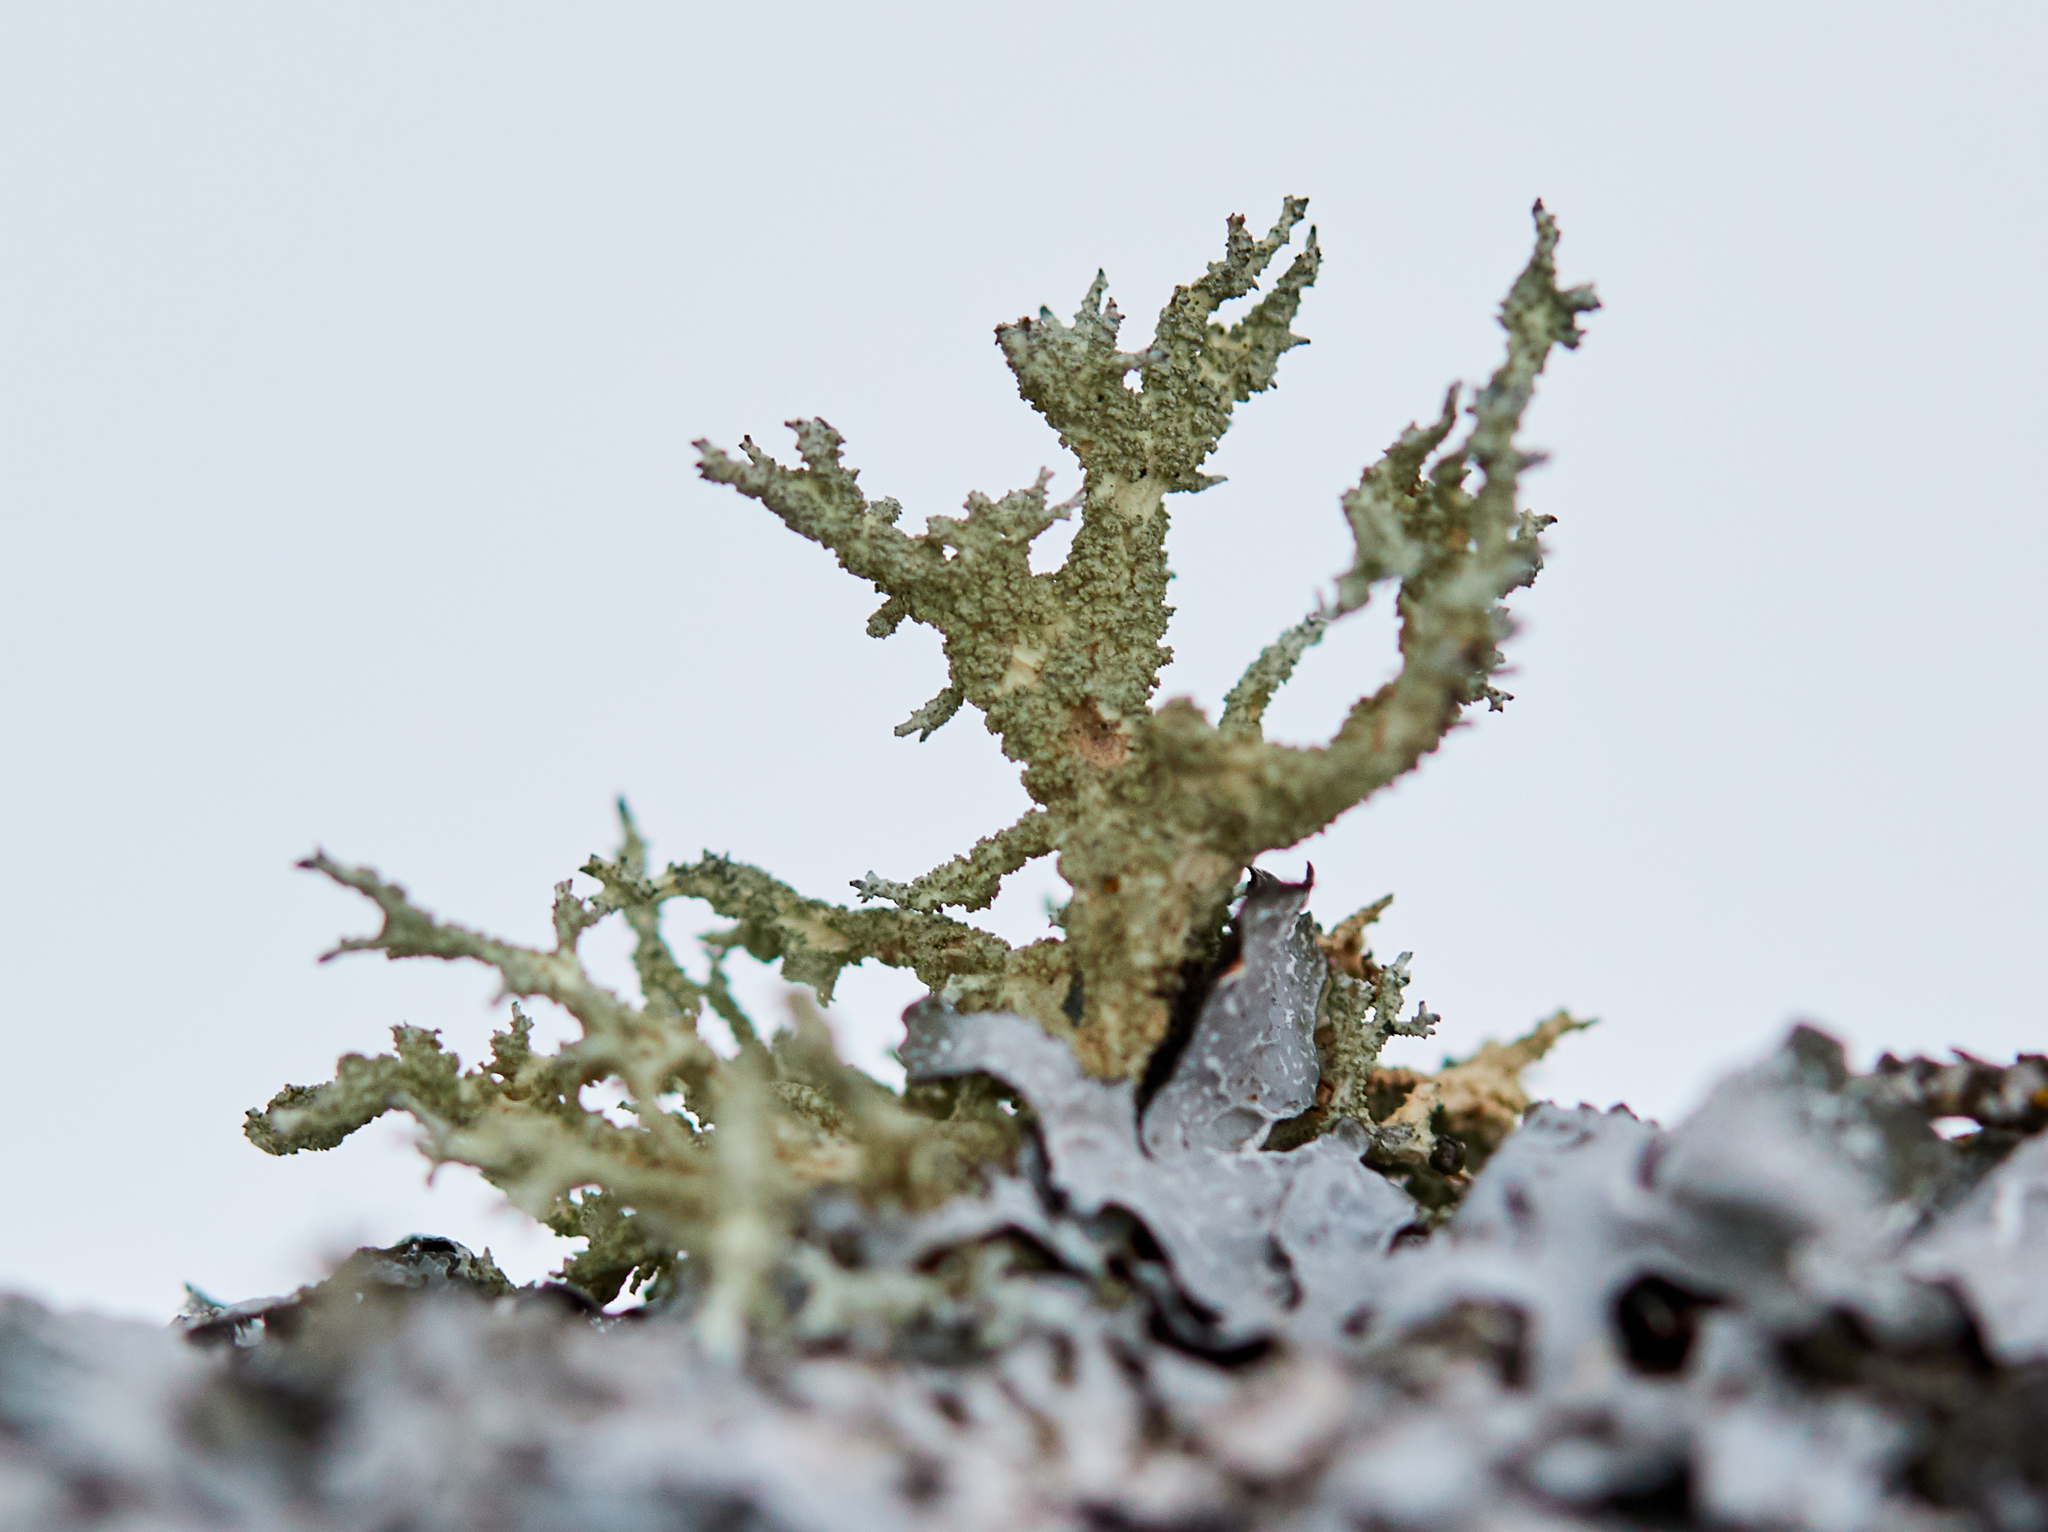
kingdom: Fungi
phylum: Ascomycota
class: Lecanoromycetes
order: Lecanorales
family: Parmeliaceae
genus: Evernia
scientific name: Evernia mesomorpha
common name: Boreal oak moss lichen
